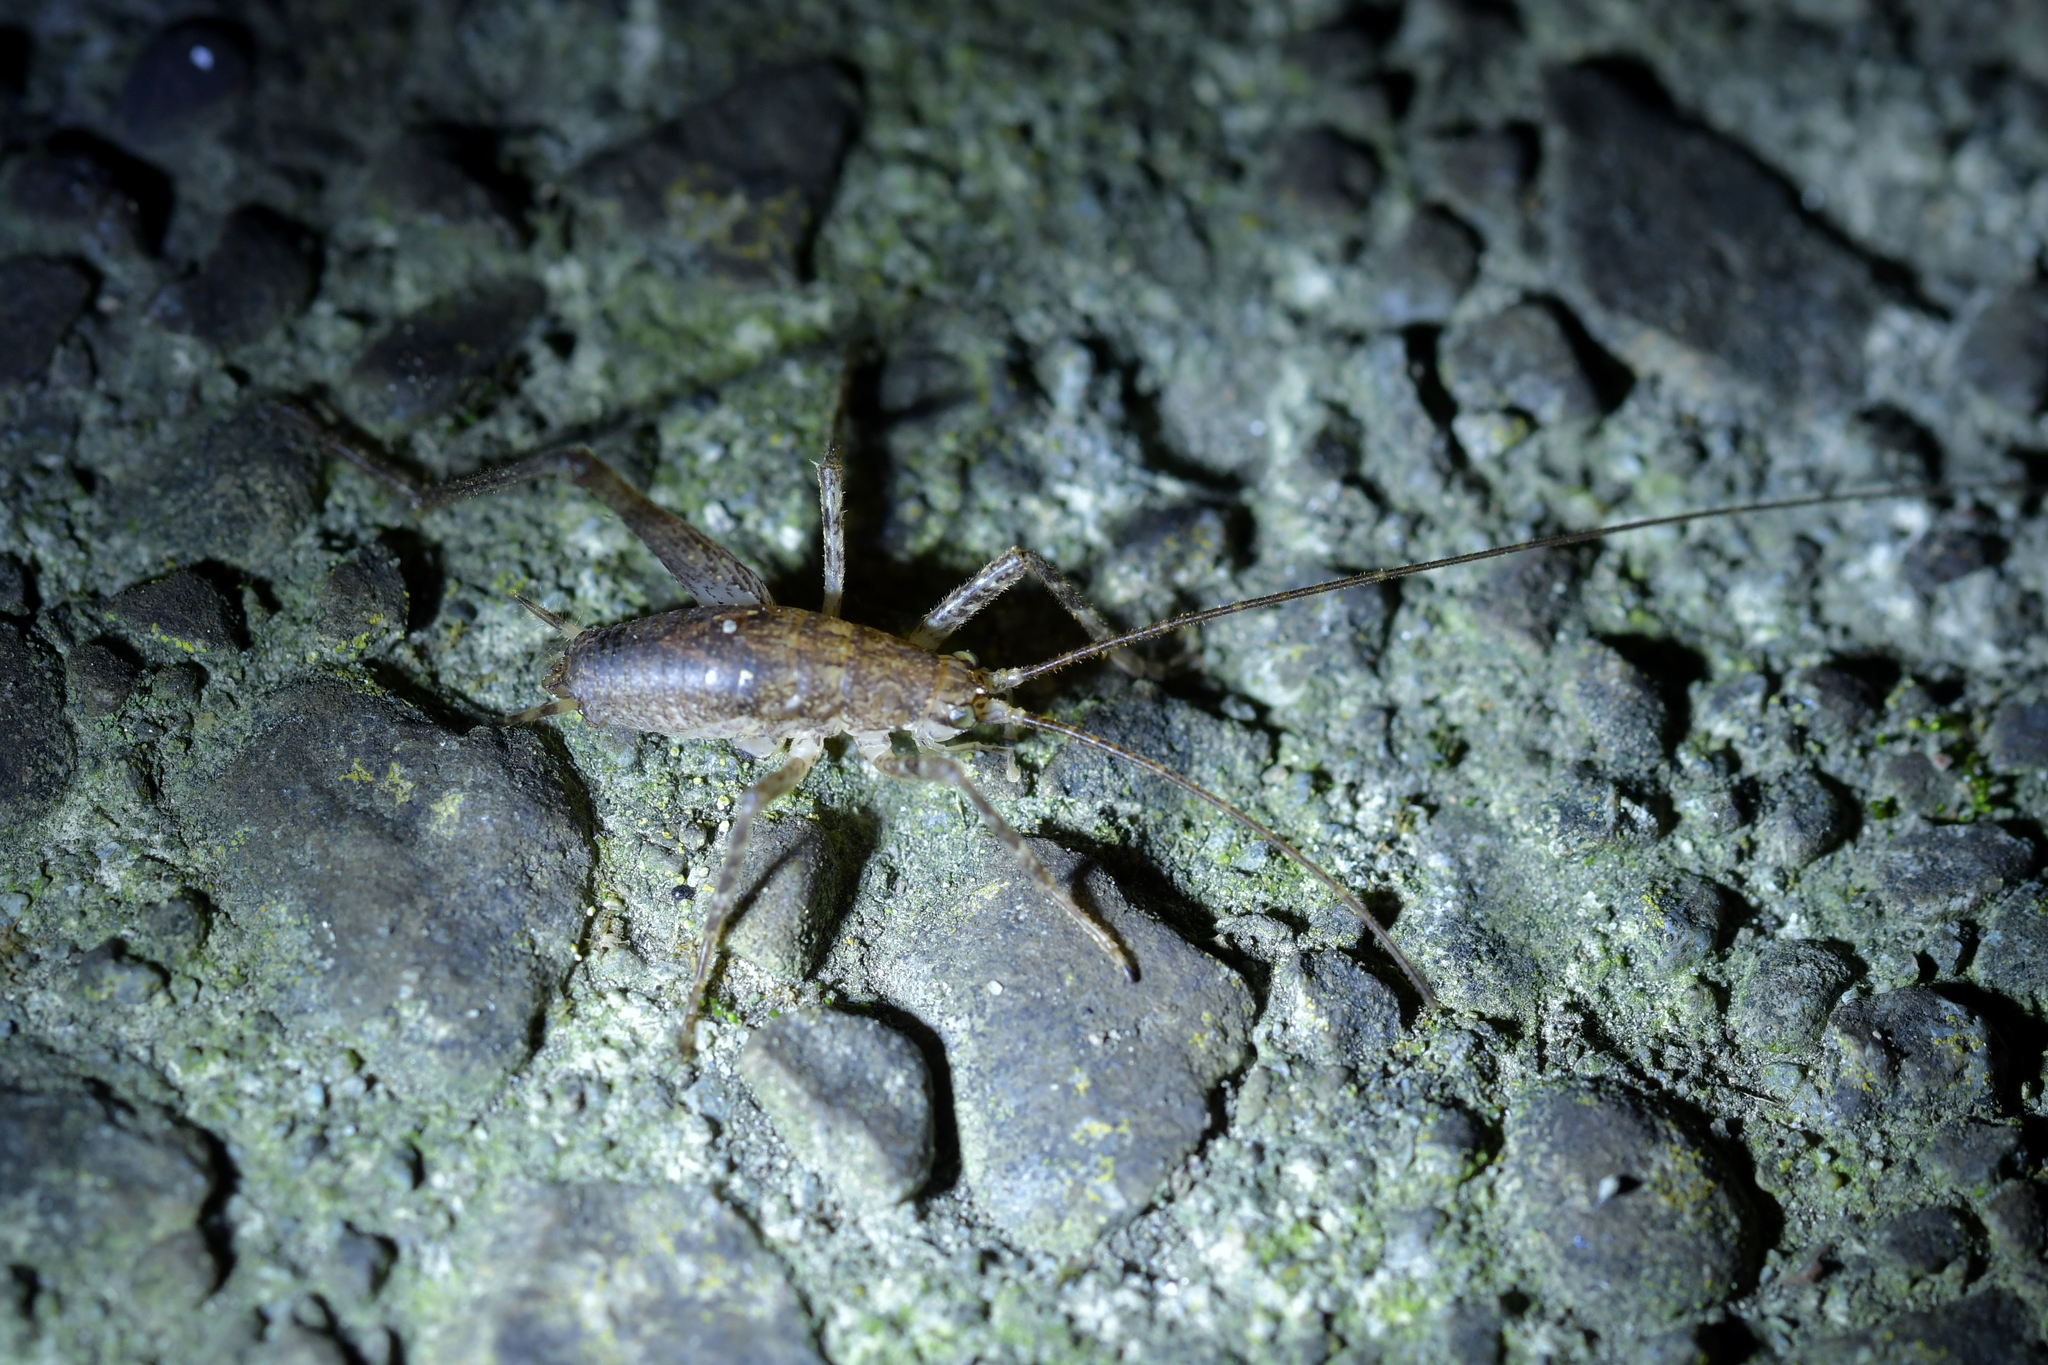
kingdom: Animalia
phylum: Arthropoda
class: Insecta
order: Orthoptera
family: Rhaphidophoridae
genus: Isoplectron
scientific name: Isoplectron armatum
